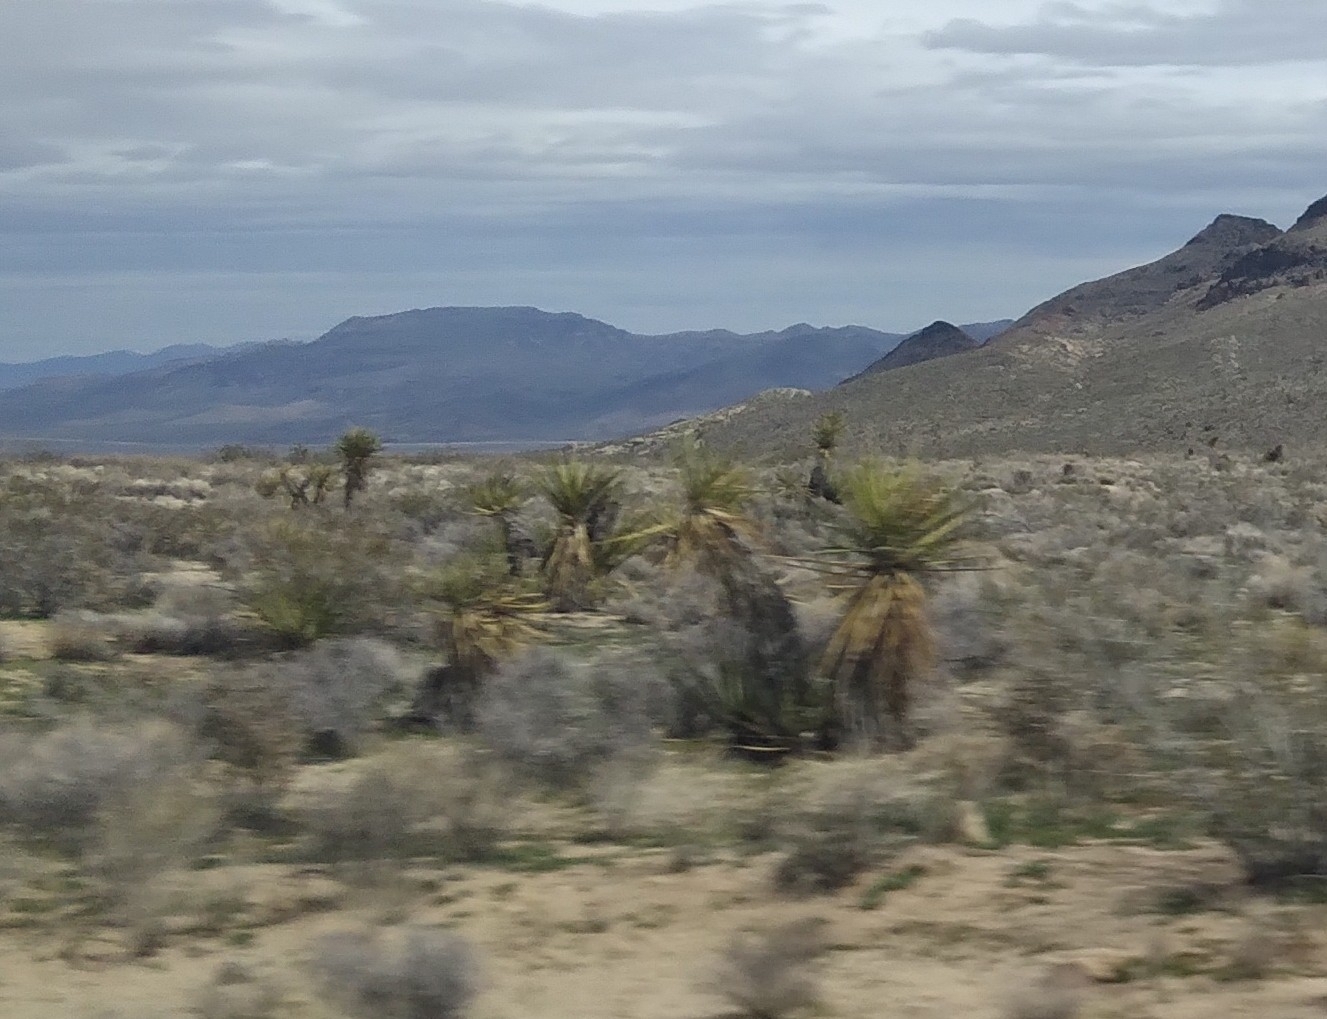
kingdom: Plantae
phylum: Tracheophyta
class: Liliopsida
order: Asparagales
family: Asparagaceae
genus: Yucca
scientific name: Yucca schidigera
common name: Mojave yucca
